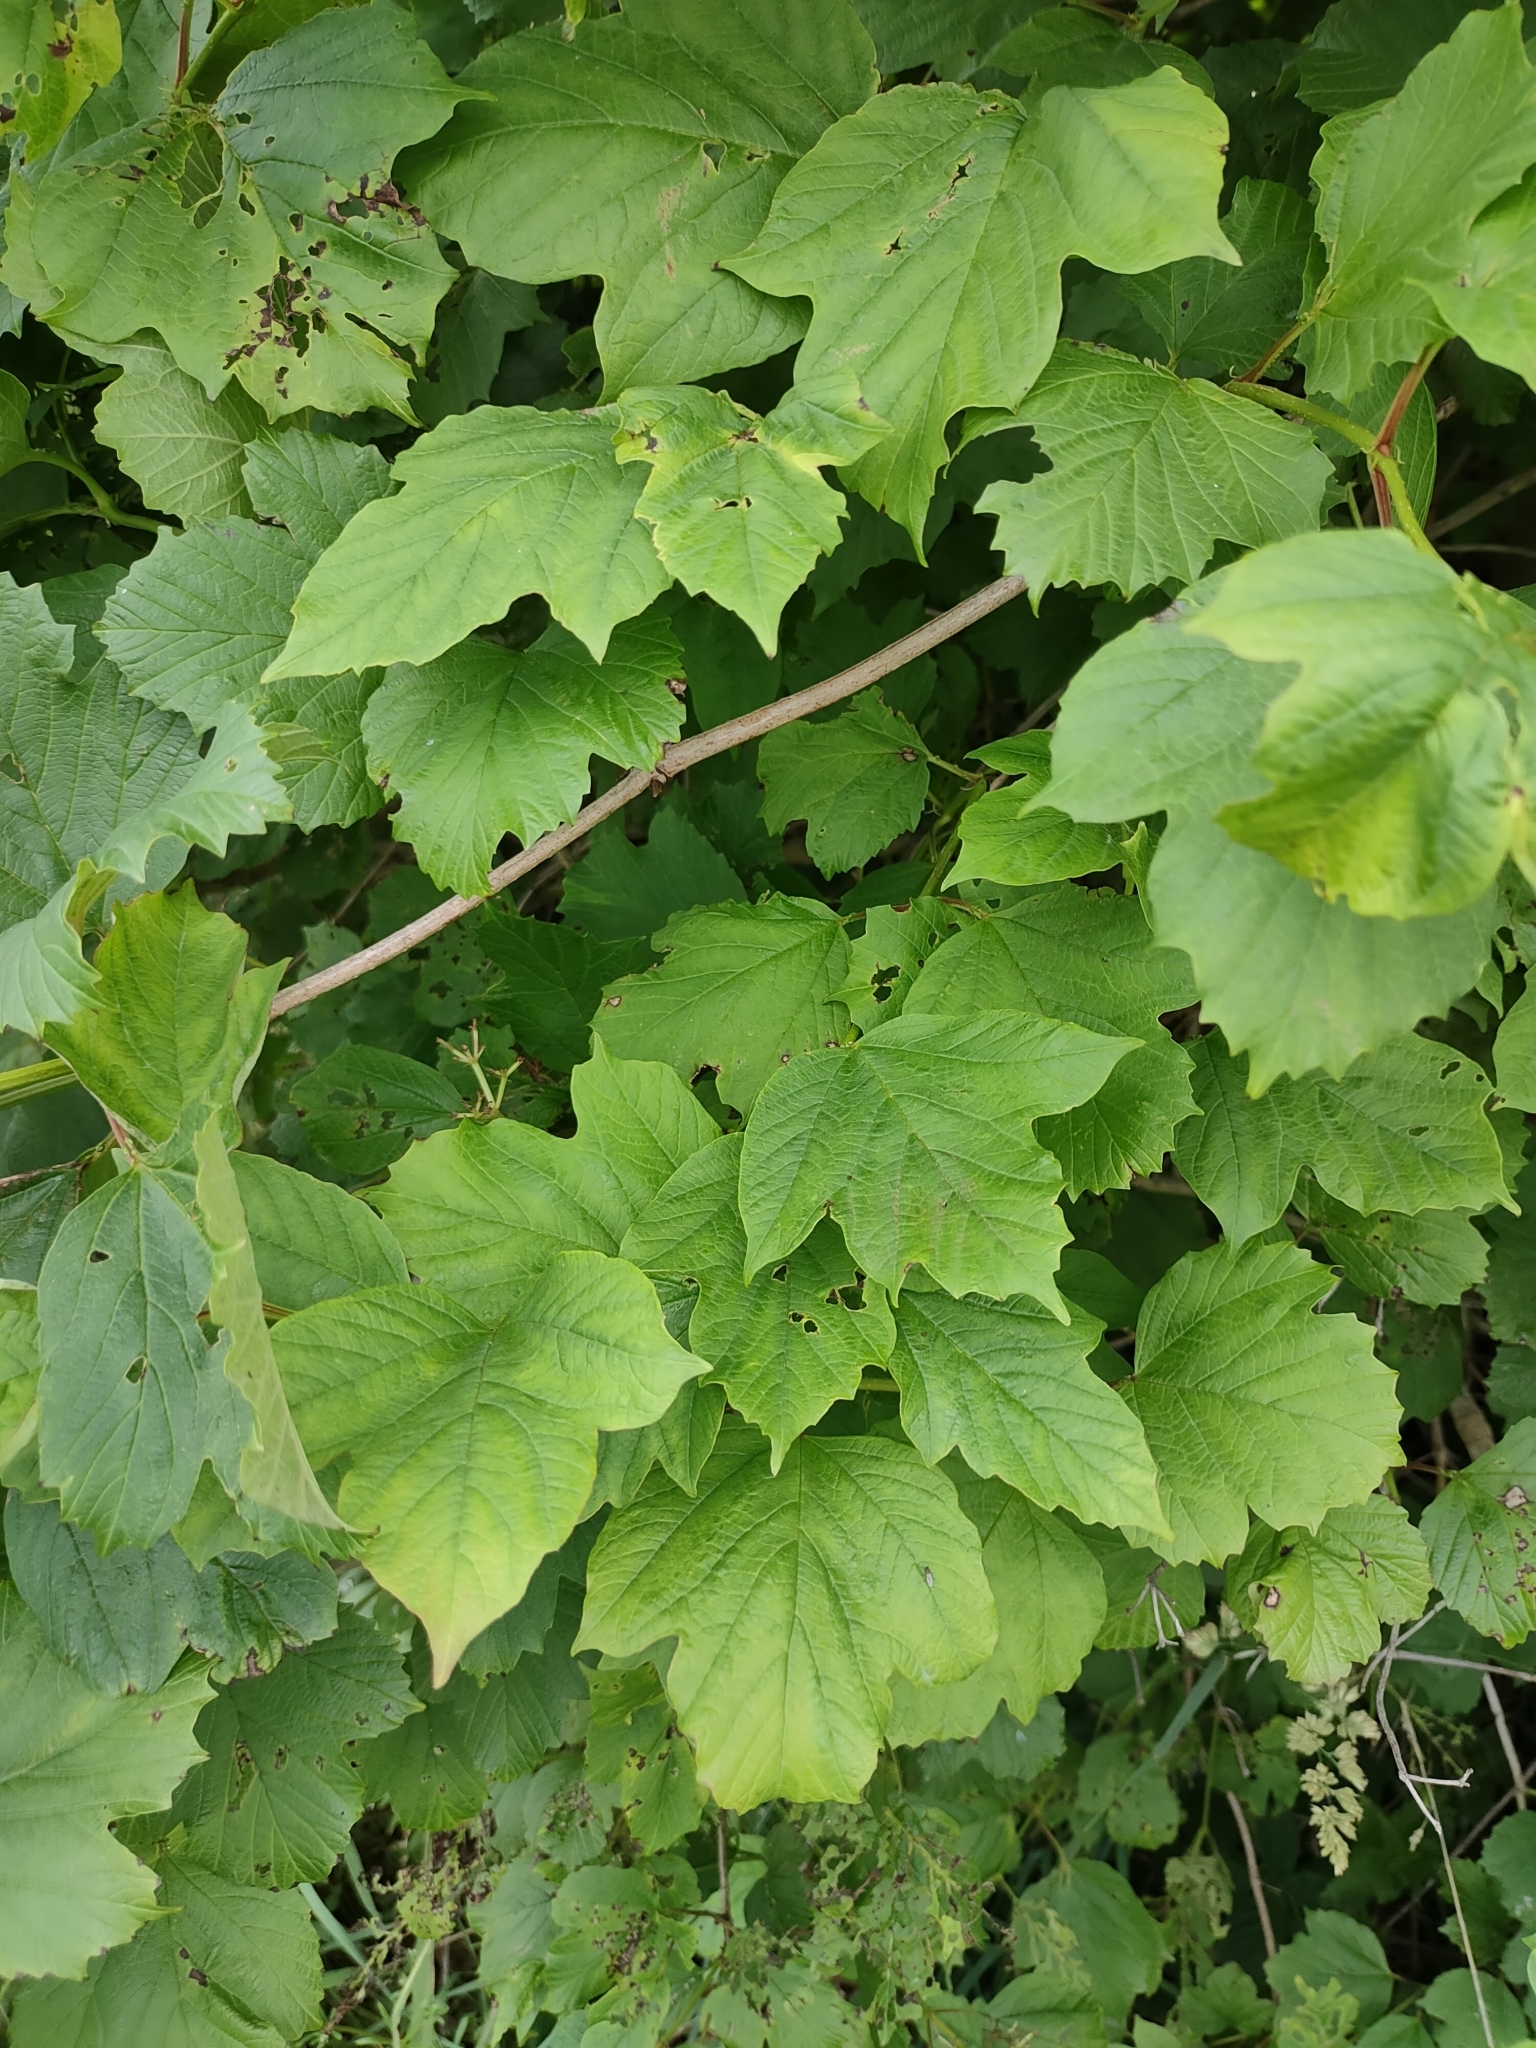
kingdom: Plantae
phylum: Tracheophyta
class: Magnoliopsida
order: Dipsacales
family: Viburnaceae
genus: Viburnum
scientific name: Viburnum opulus
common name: Guelder-rose
